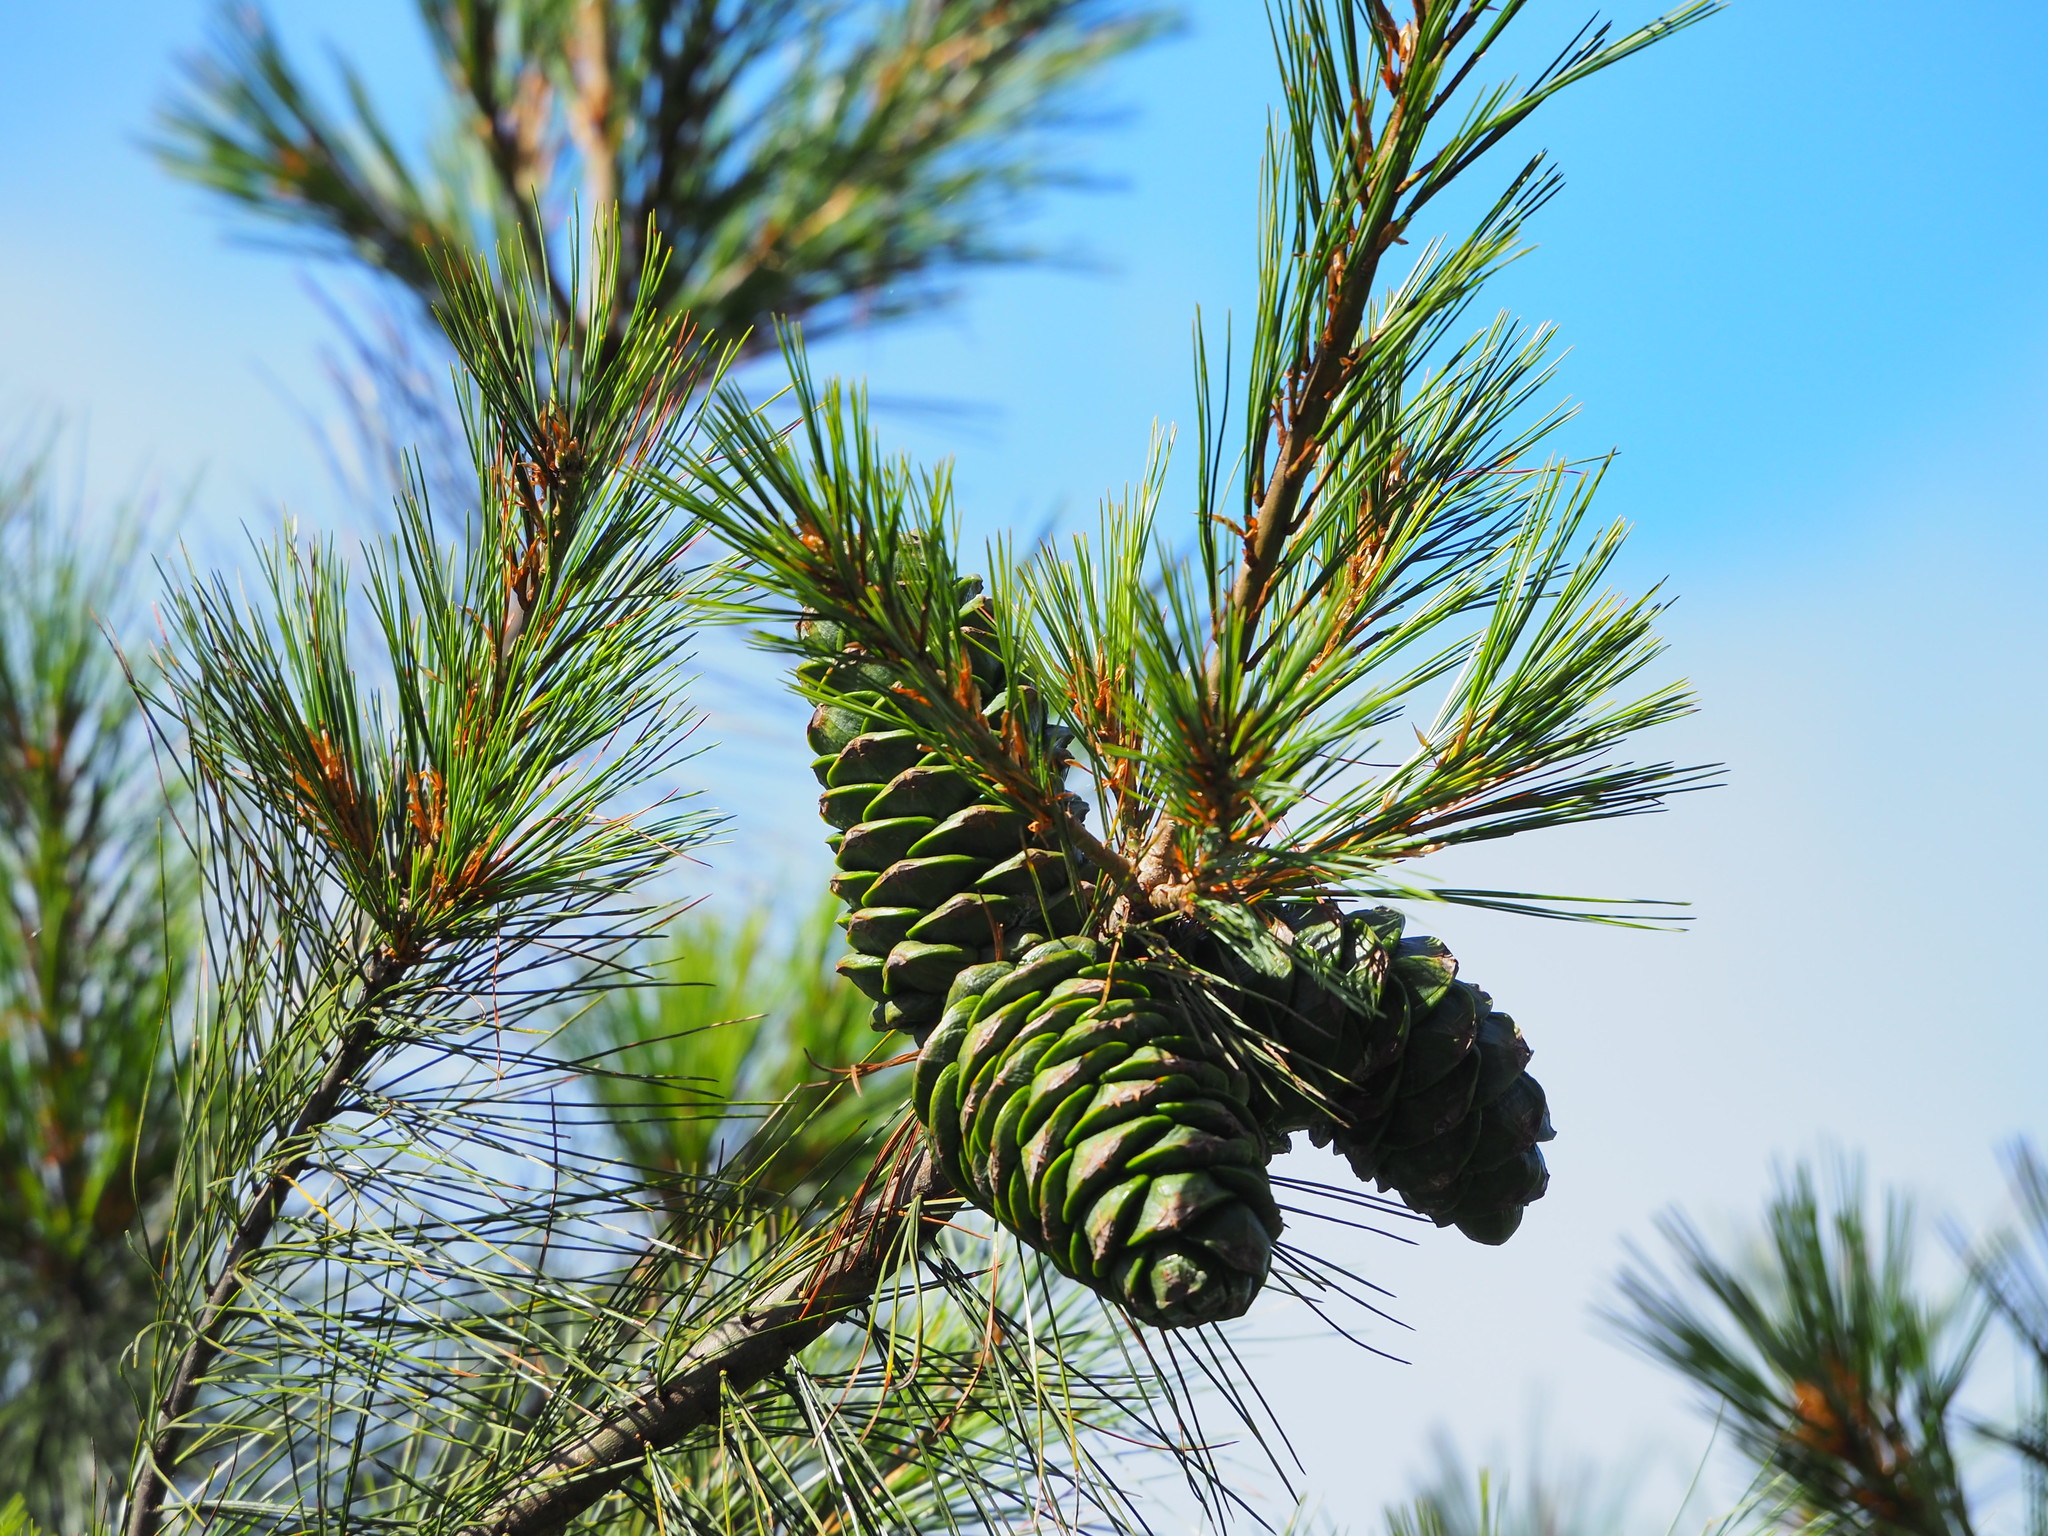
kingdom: Plantae
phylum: Tracheophyta
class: Pinopsida
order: Pinales
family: Pinaceae
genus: Pinus
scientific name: Pinus armandii
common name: Armand's pine
